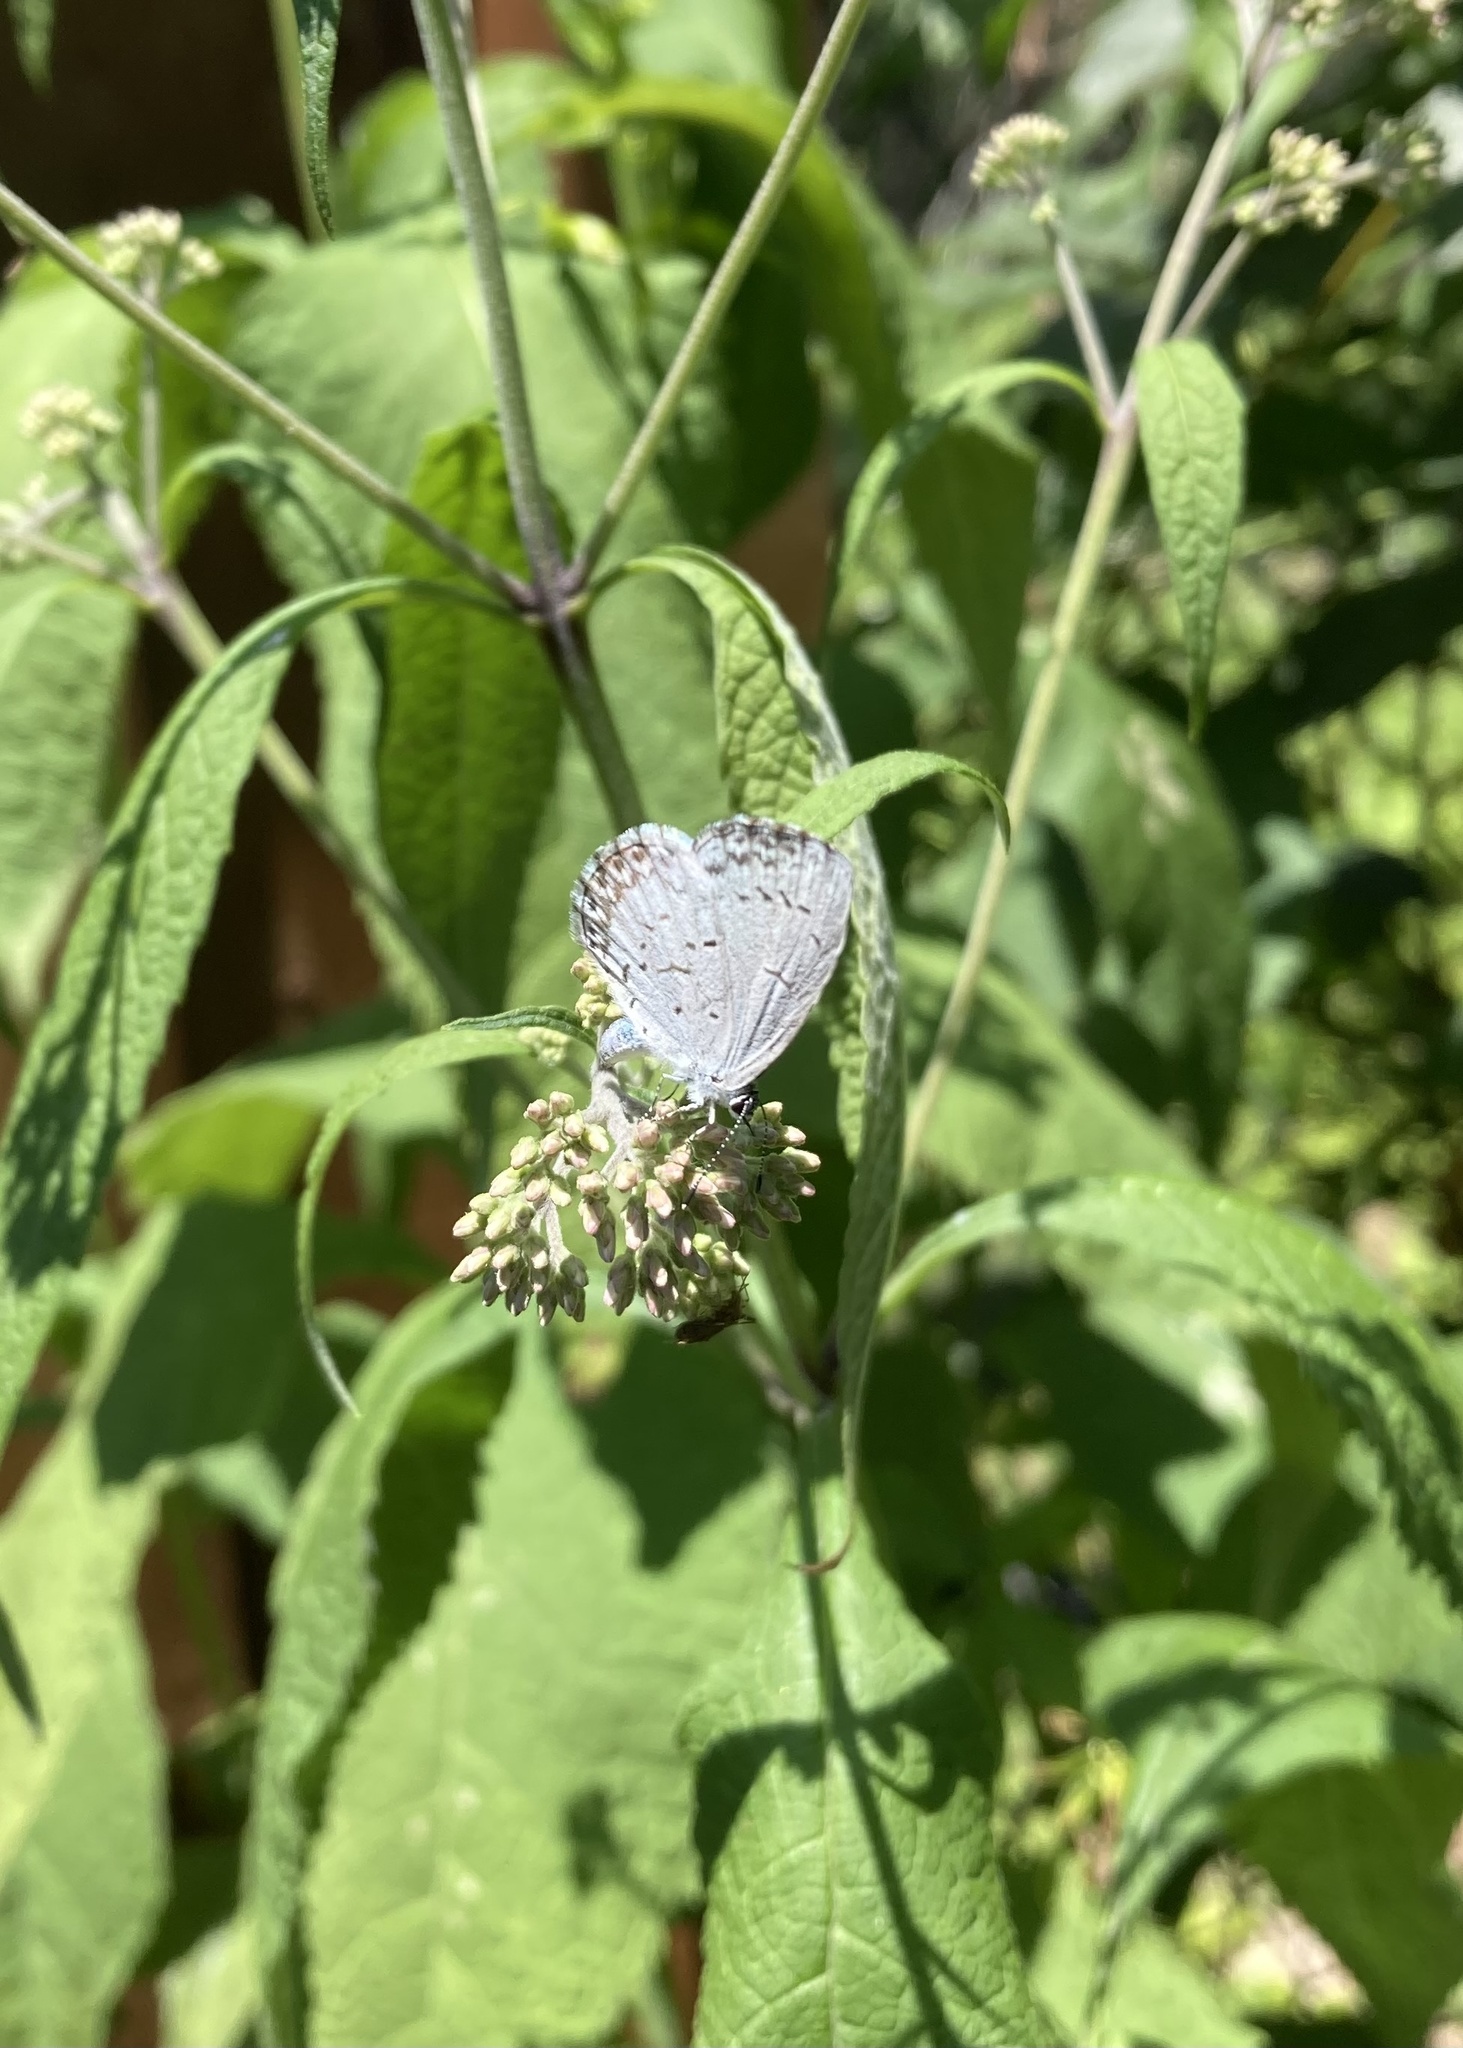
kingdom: Animalia
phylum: Arthropoda
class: Insecta
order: Lepidoptera
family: Lycaenidae
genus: Celastrina
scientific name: Celastrina lucia
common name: Lucia azure
